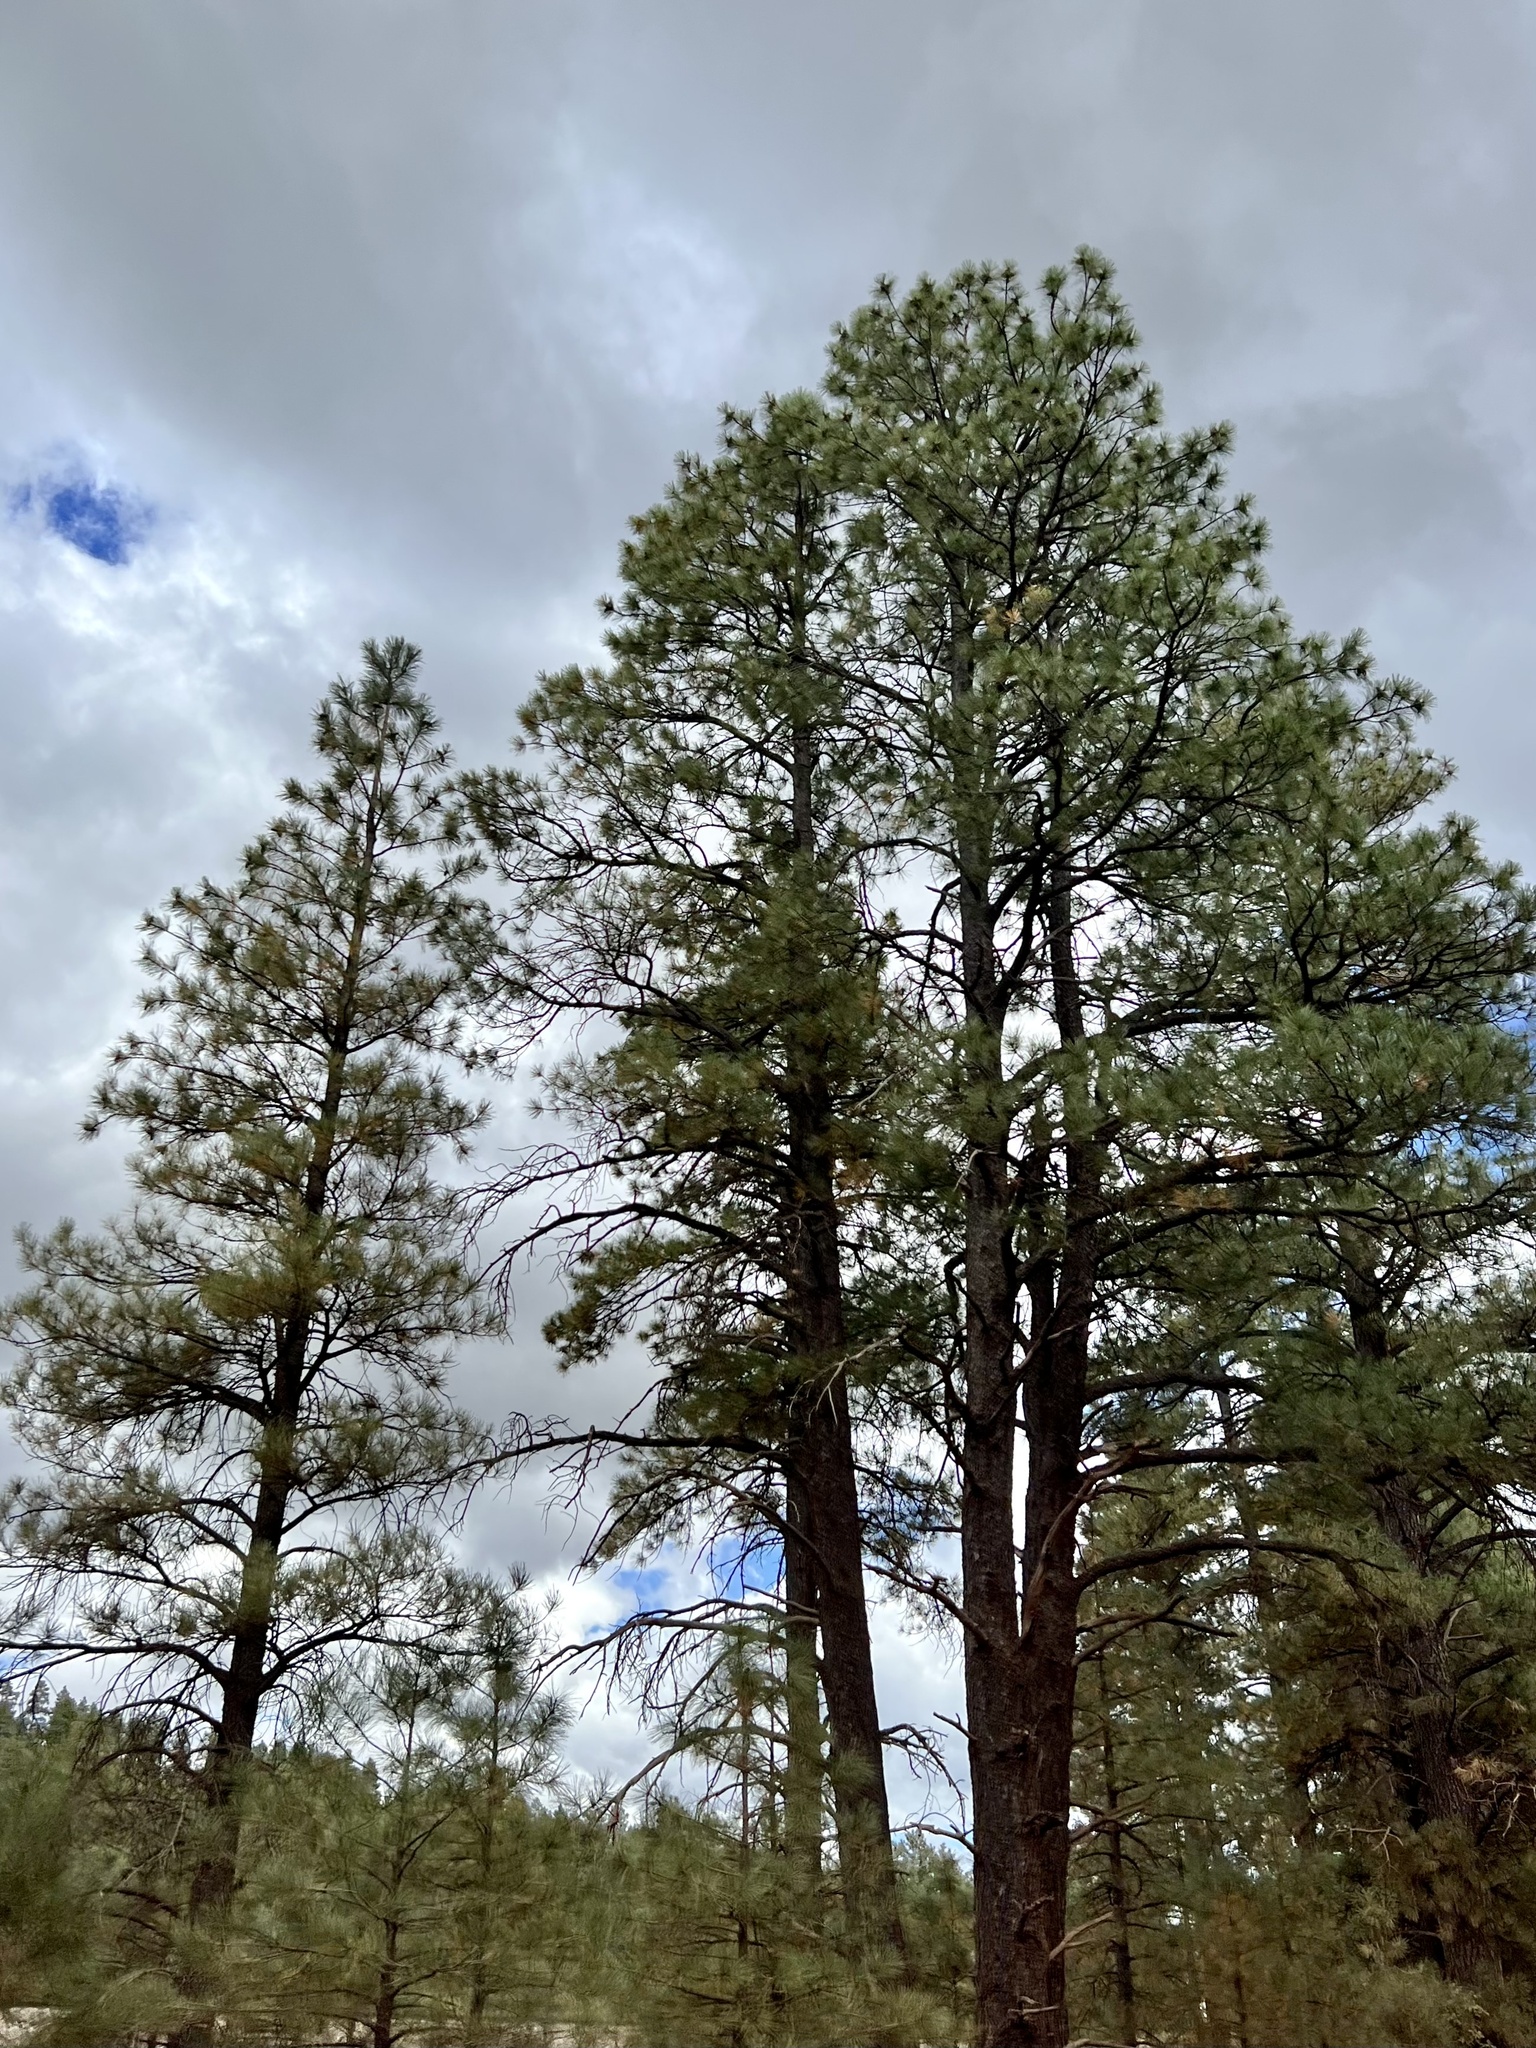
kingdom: Plantae
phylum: Tracheophyta
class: Pinopsida
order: Pinales
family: Pinaceae
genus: Pinus
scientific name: Pinus ponderosa
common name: Western yellow-pine
